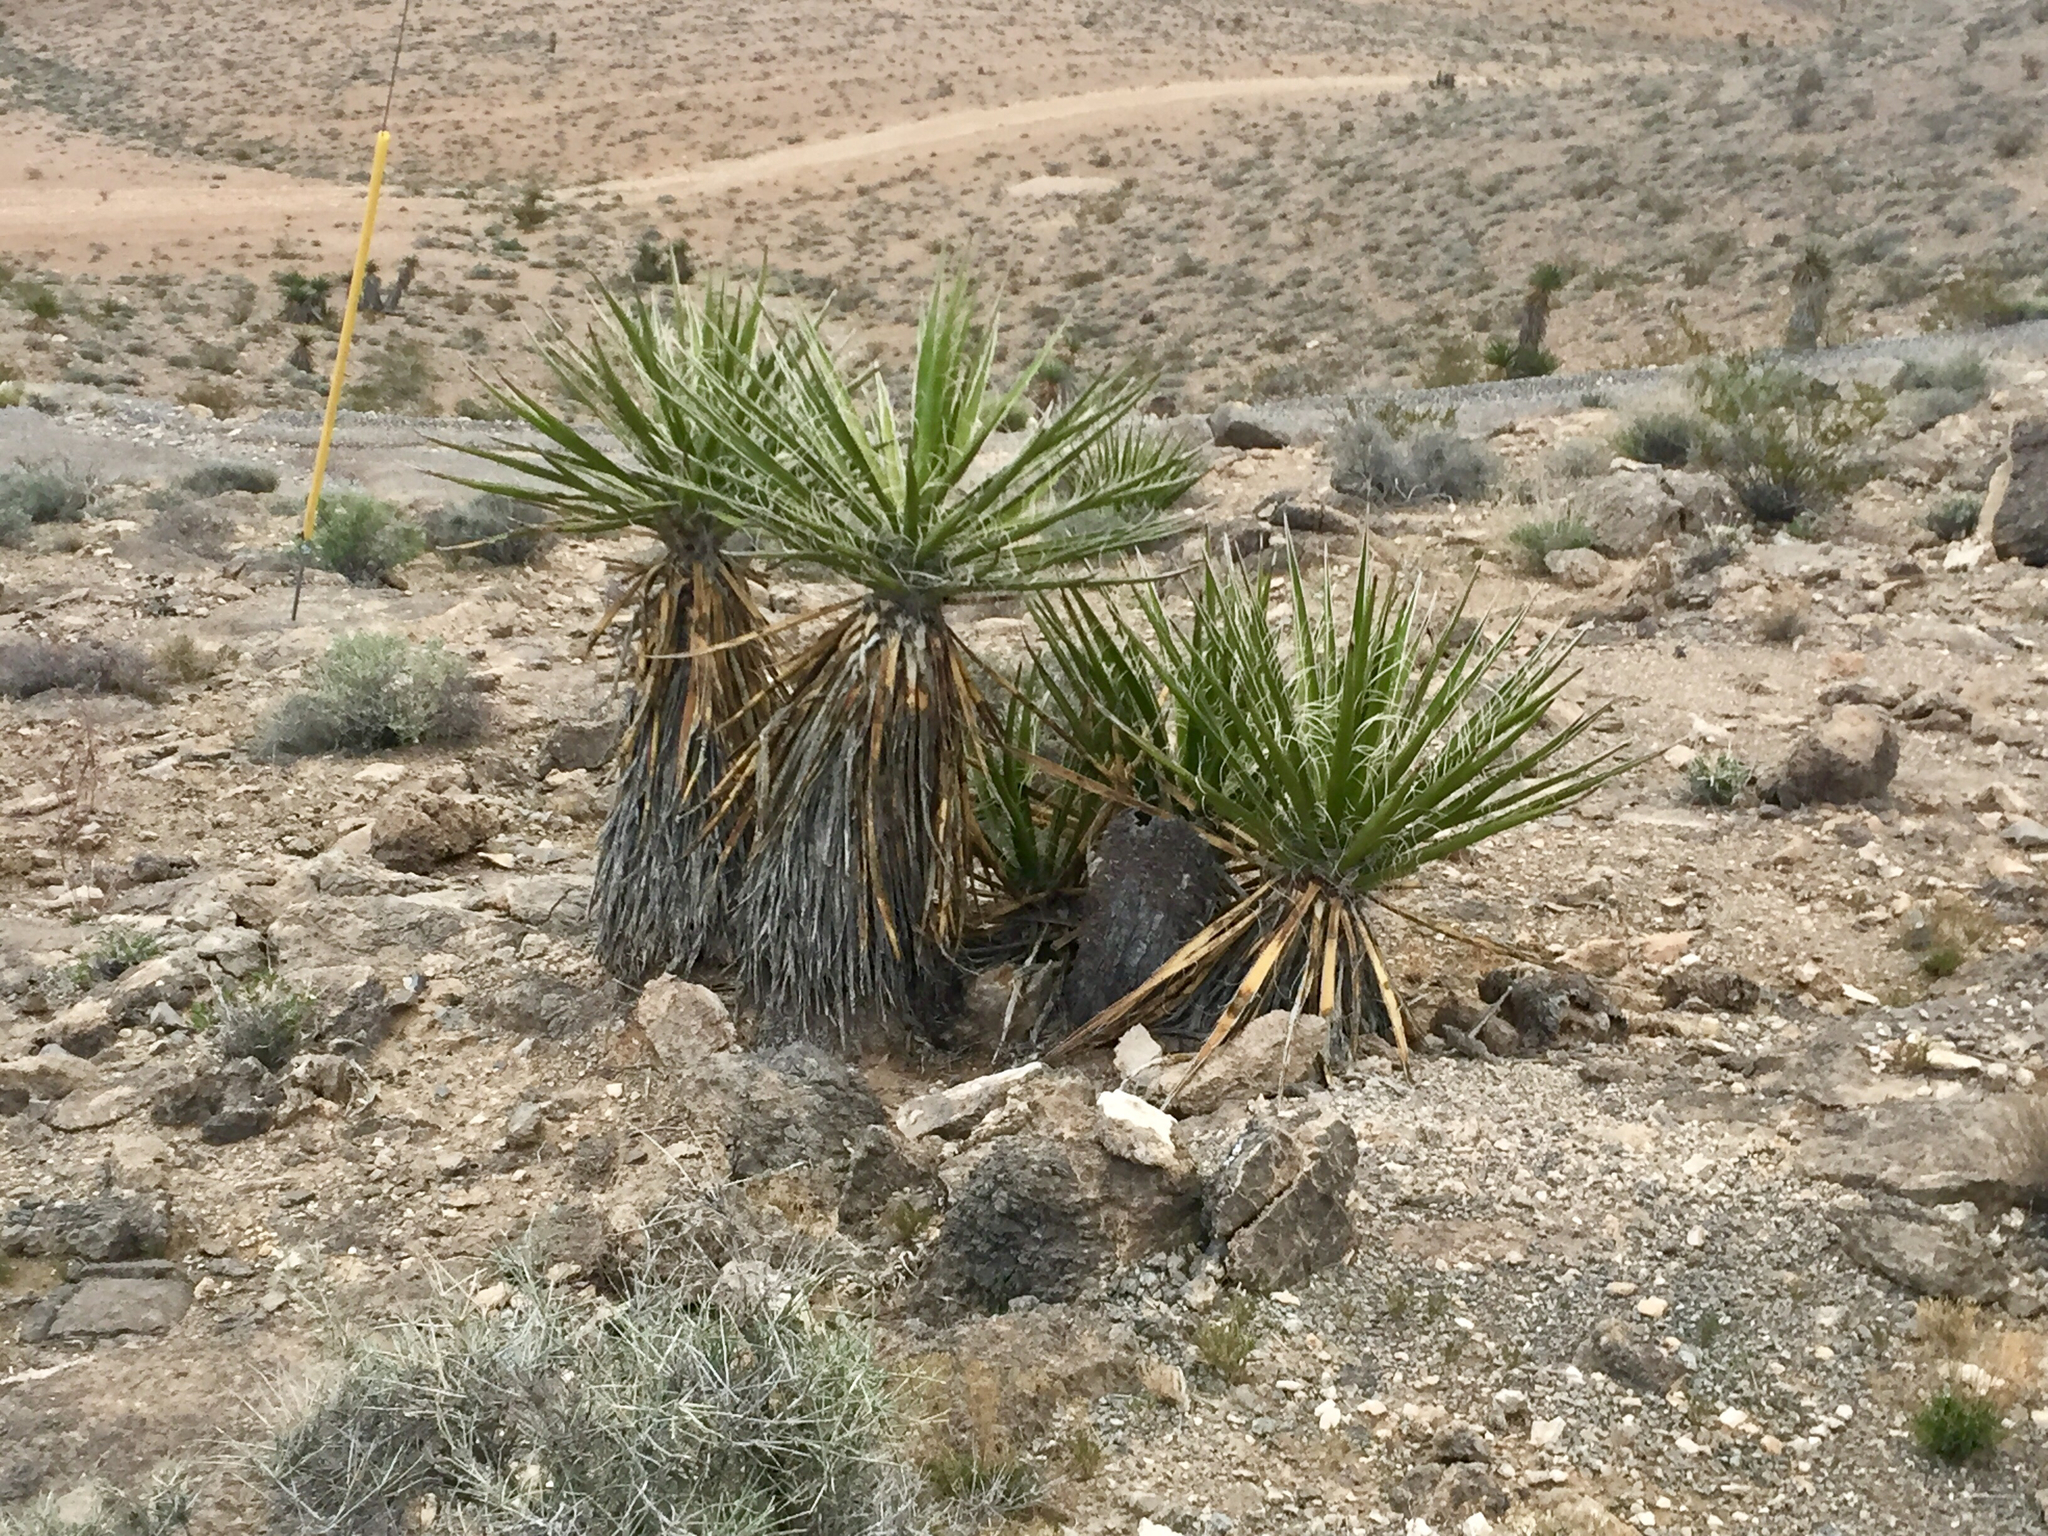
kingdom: Plantae
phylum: Tracheophyta
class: Liliopsida
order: Asparagales
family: Asparagaceae
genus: Yucca
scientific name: Yucca schidigera
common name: Mojave yucca
